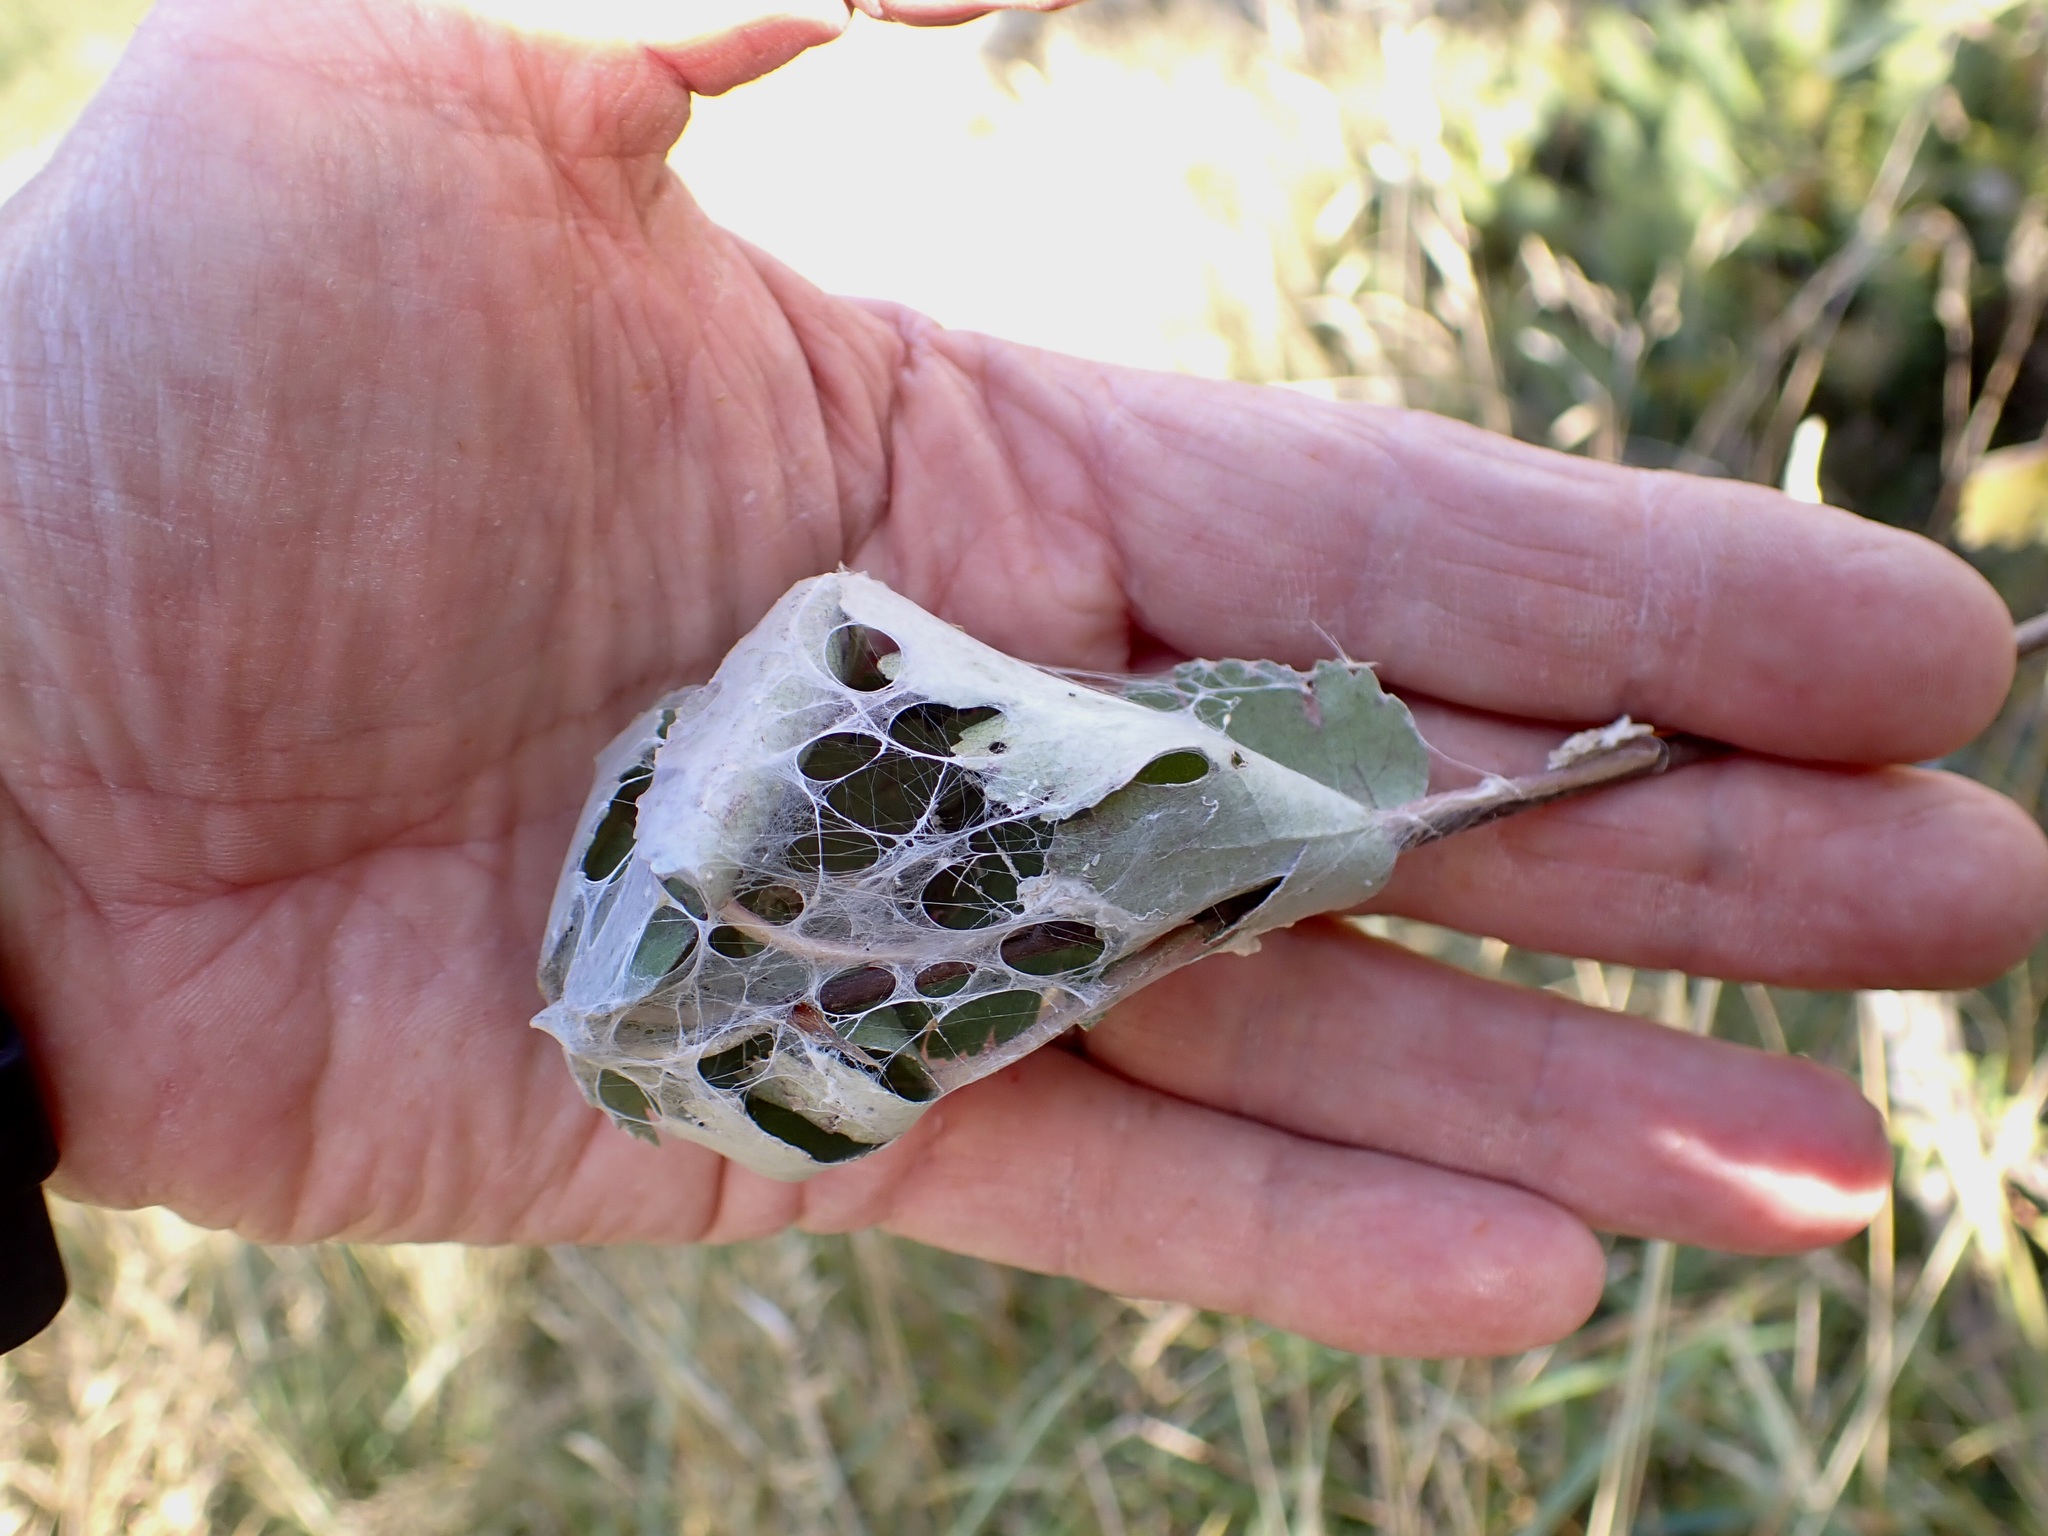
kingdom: Animalia
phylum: Arthropoda
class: Arachnida
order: Araneae
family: Pisauridae
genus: Dolomedes
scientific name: Dolomedes minor
